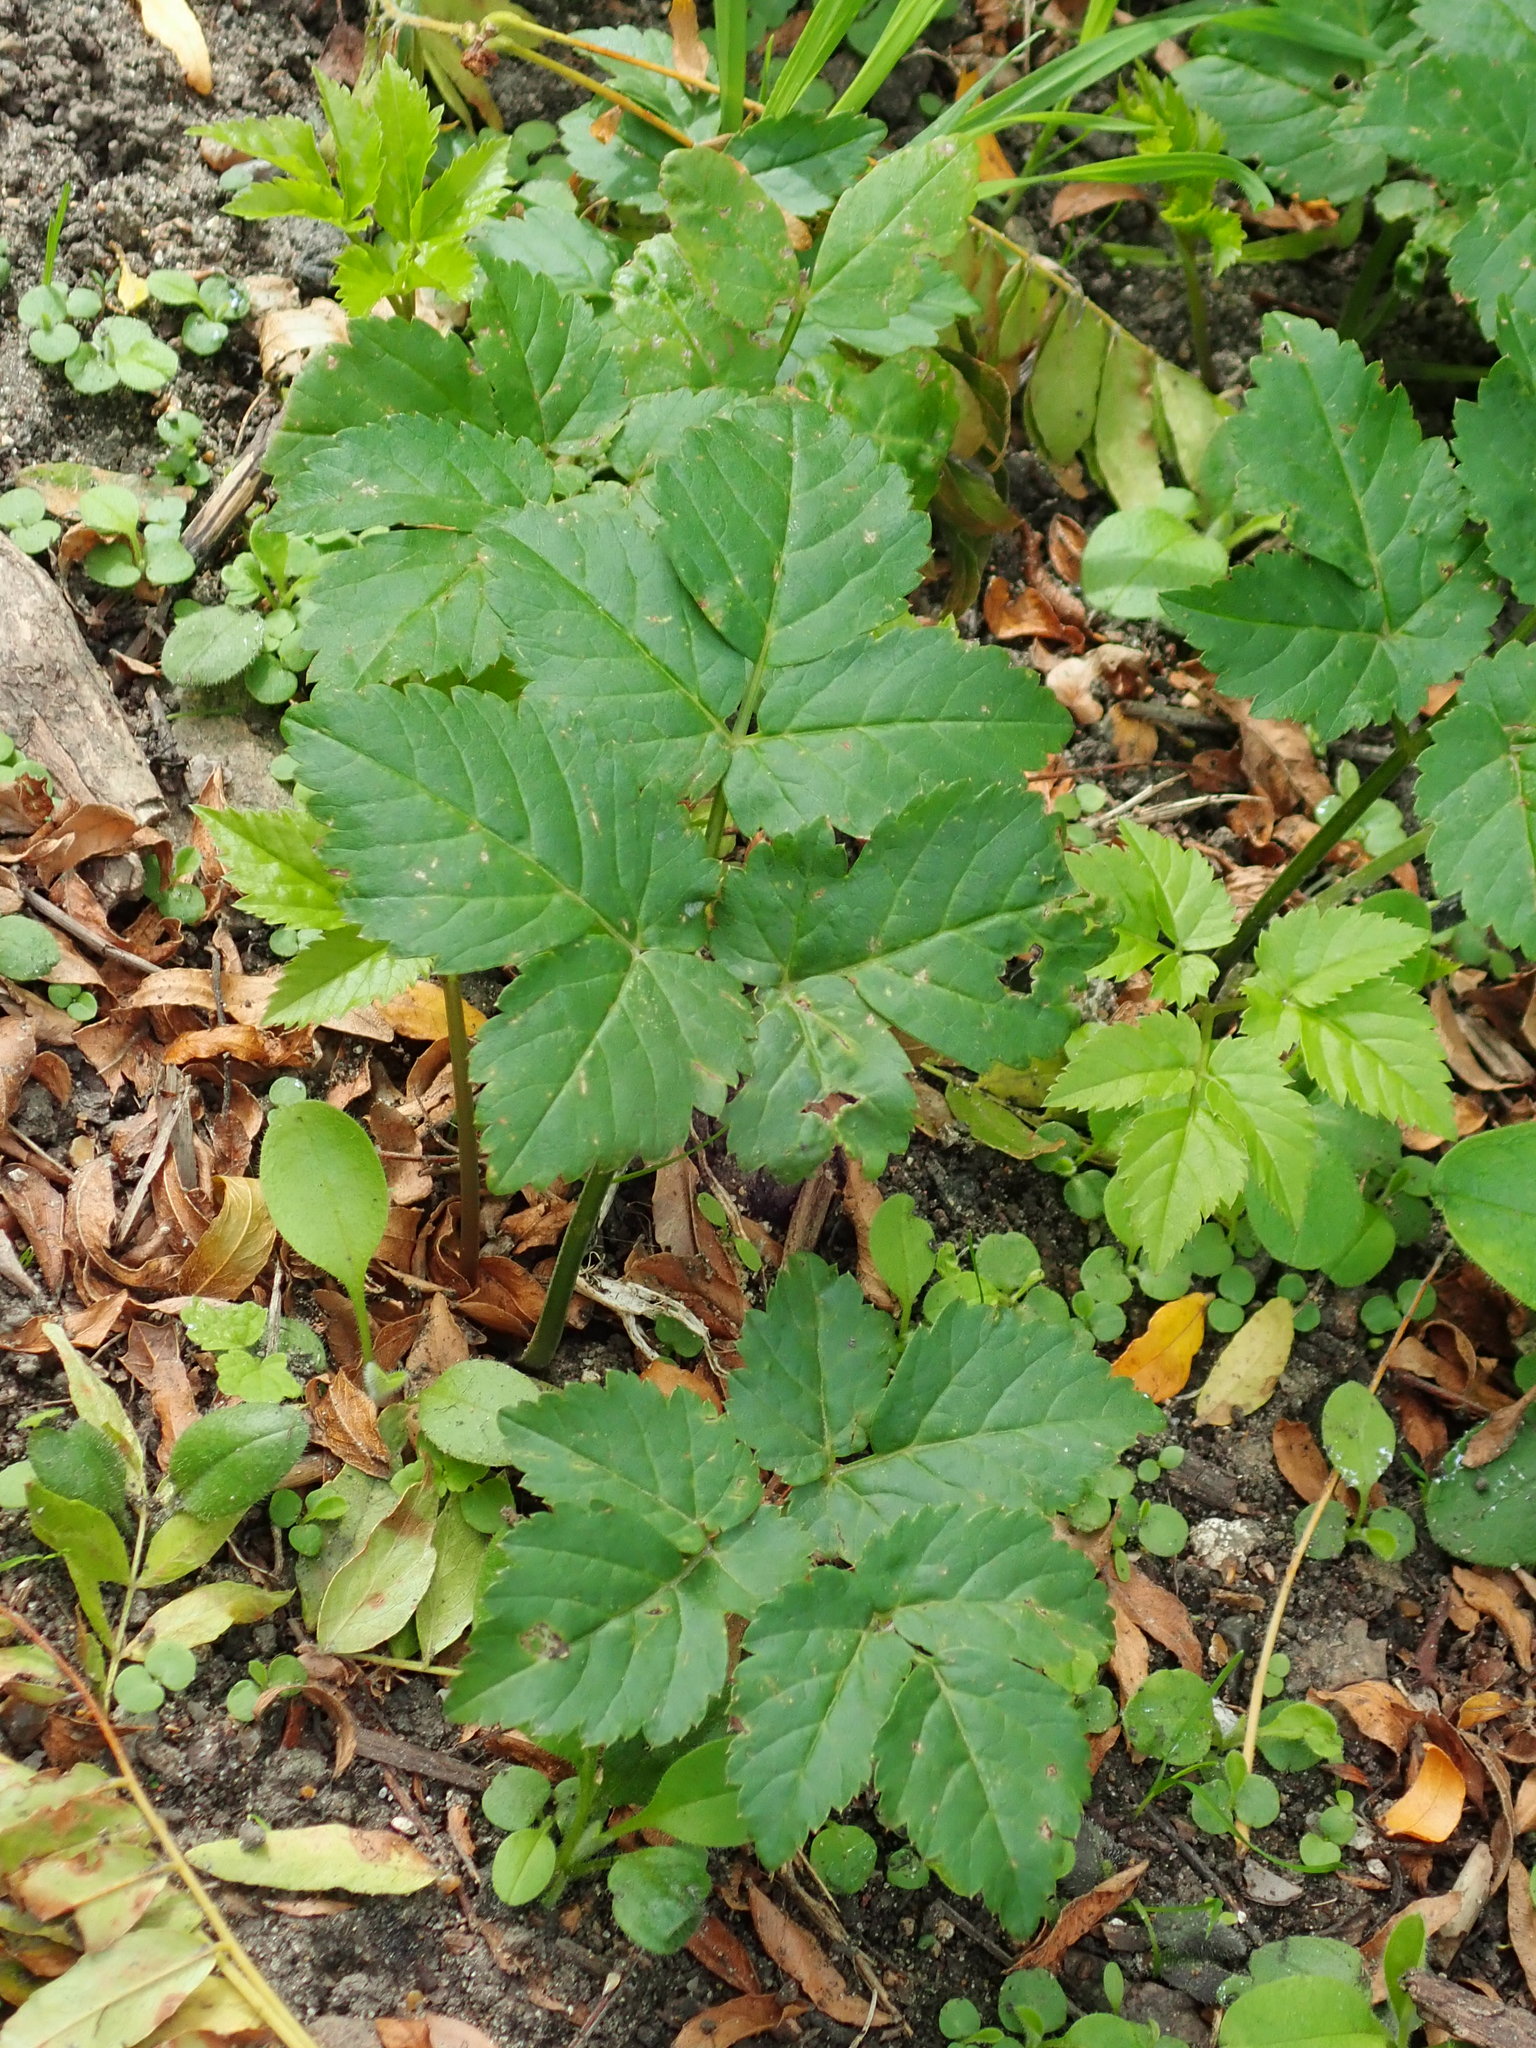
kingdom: Plantae
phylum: Tracheophyta
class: Magnoliopsida
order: Apiales
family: Apiaceae
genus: Aegopodium
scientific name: Aegopodium podagraria
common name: Ground-elder
